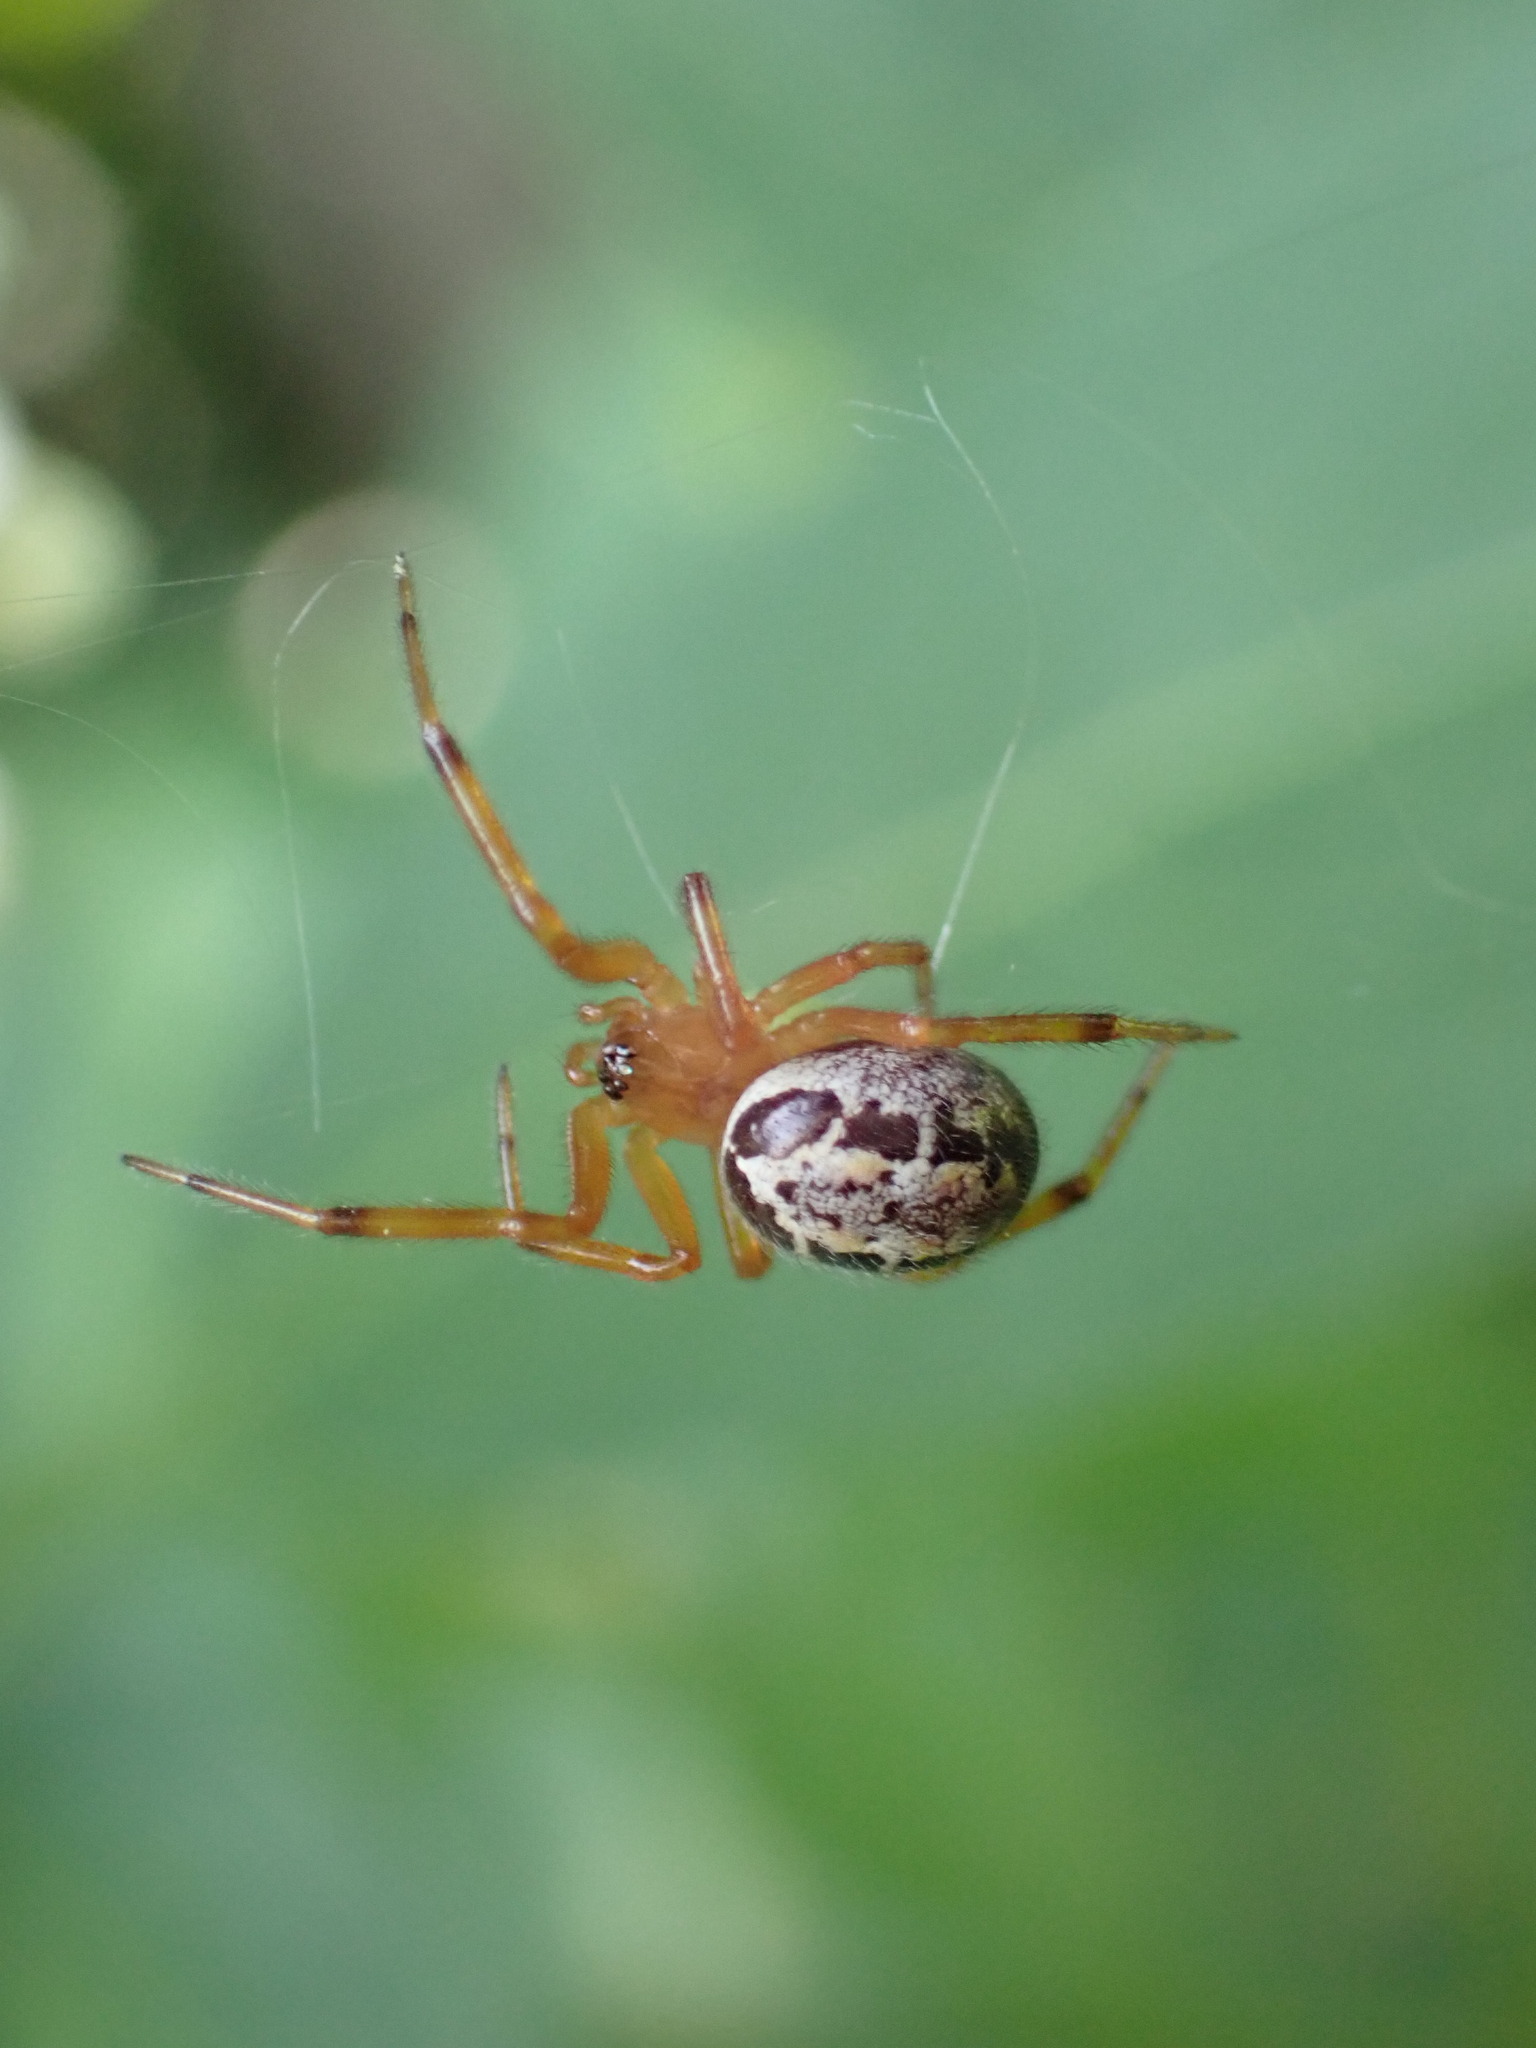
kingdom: Animalia
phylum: Arthropoda
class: Arachnida
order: Araneae
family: Theridiidae
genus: Steatoda
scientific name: Steatoda nobilis
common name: Cobweb weaver
